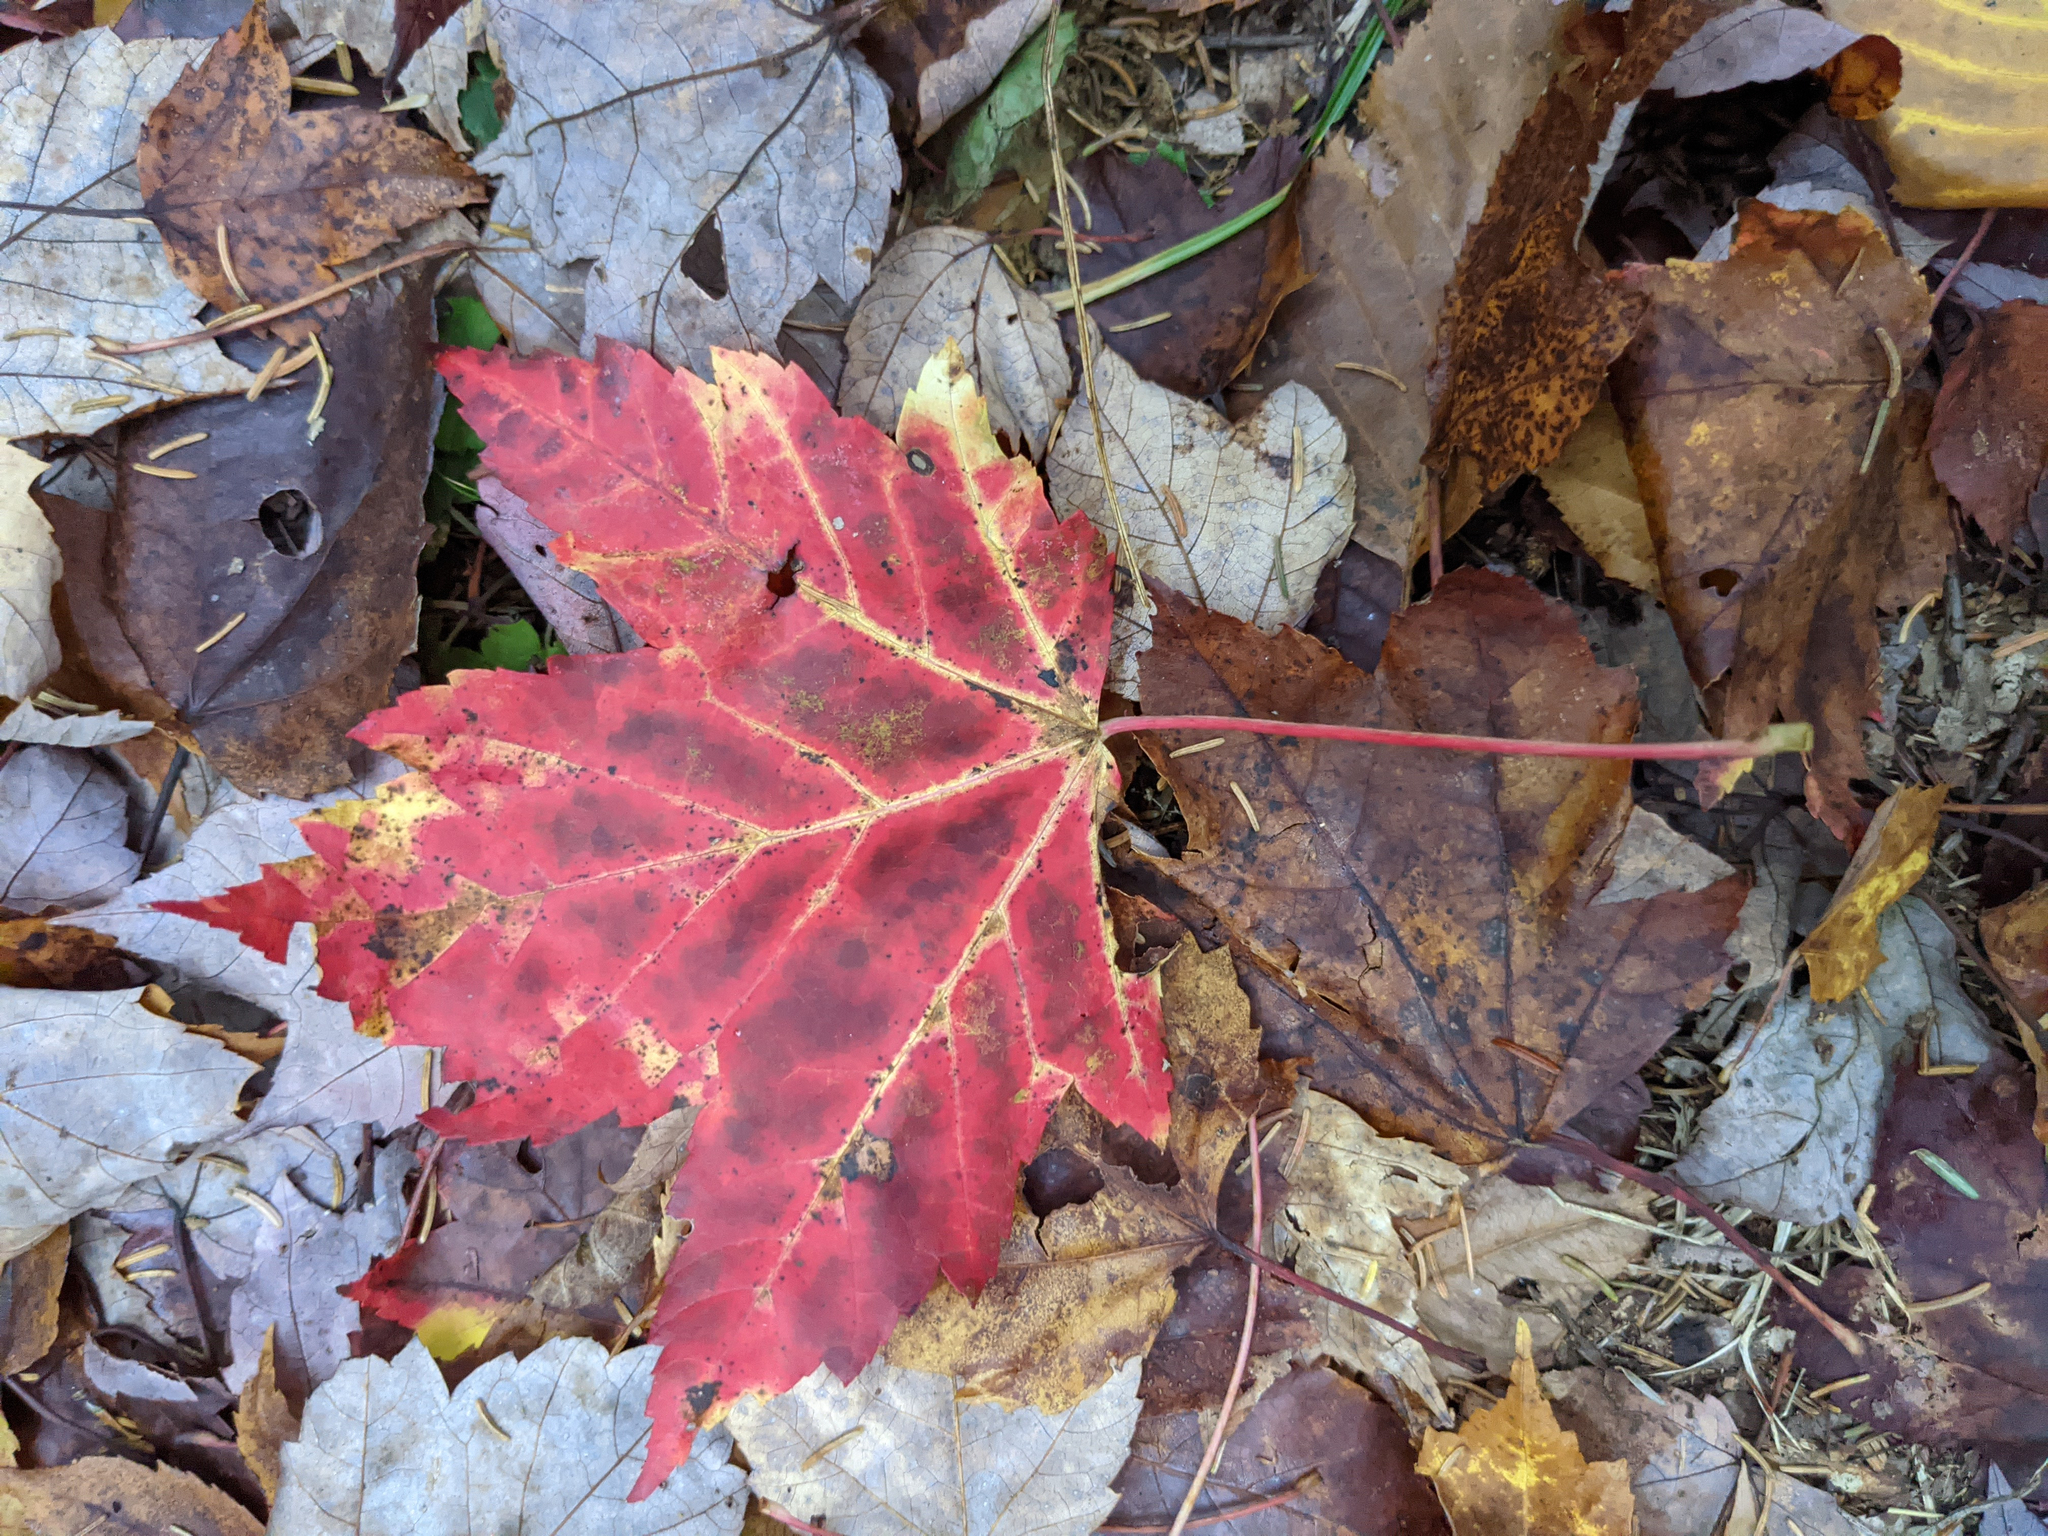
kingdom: Plantae
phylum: Tracheophyta
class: Magnoliopsida
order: Sapindales
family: Sapindaceae
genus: Acer
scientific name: Acer rubrum
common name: Red maple
